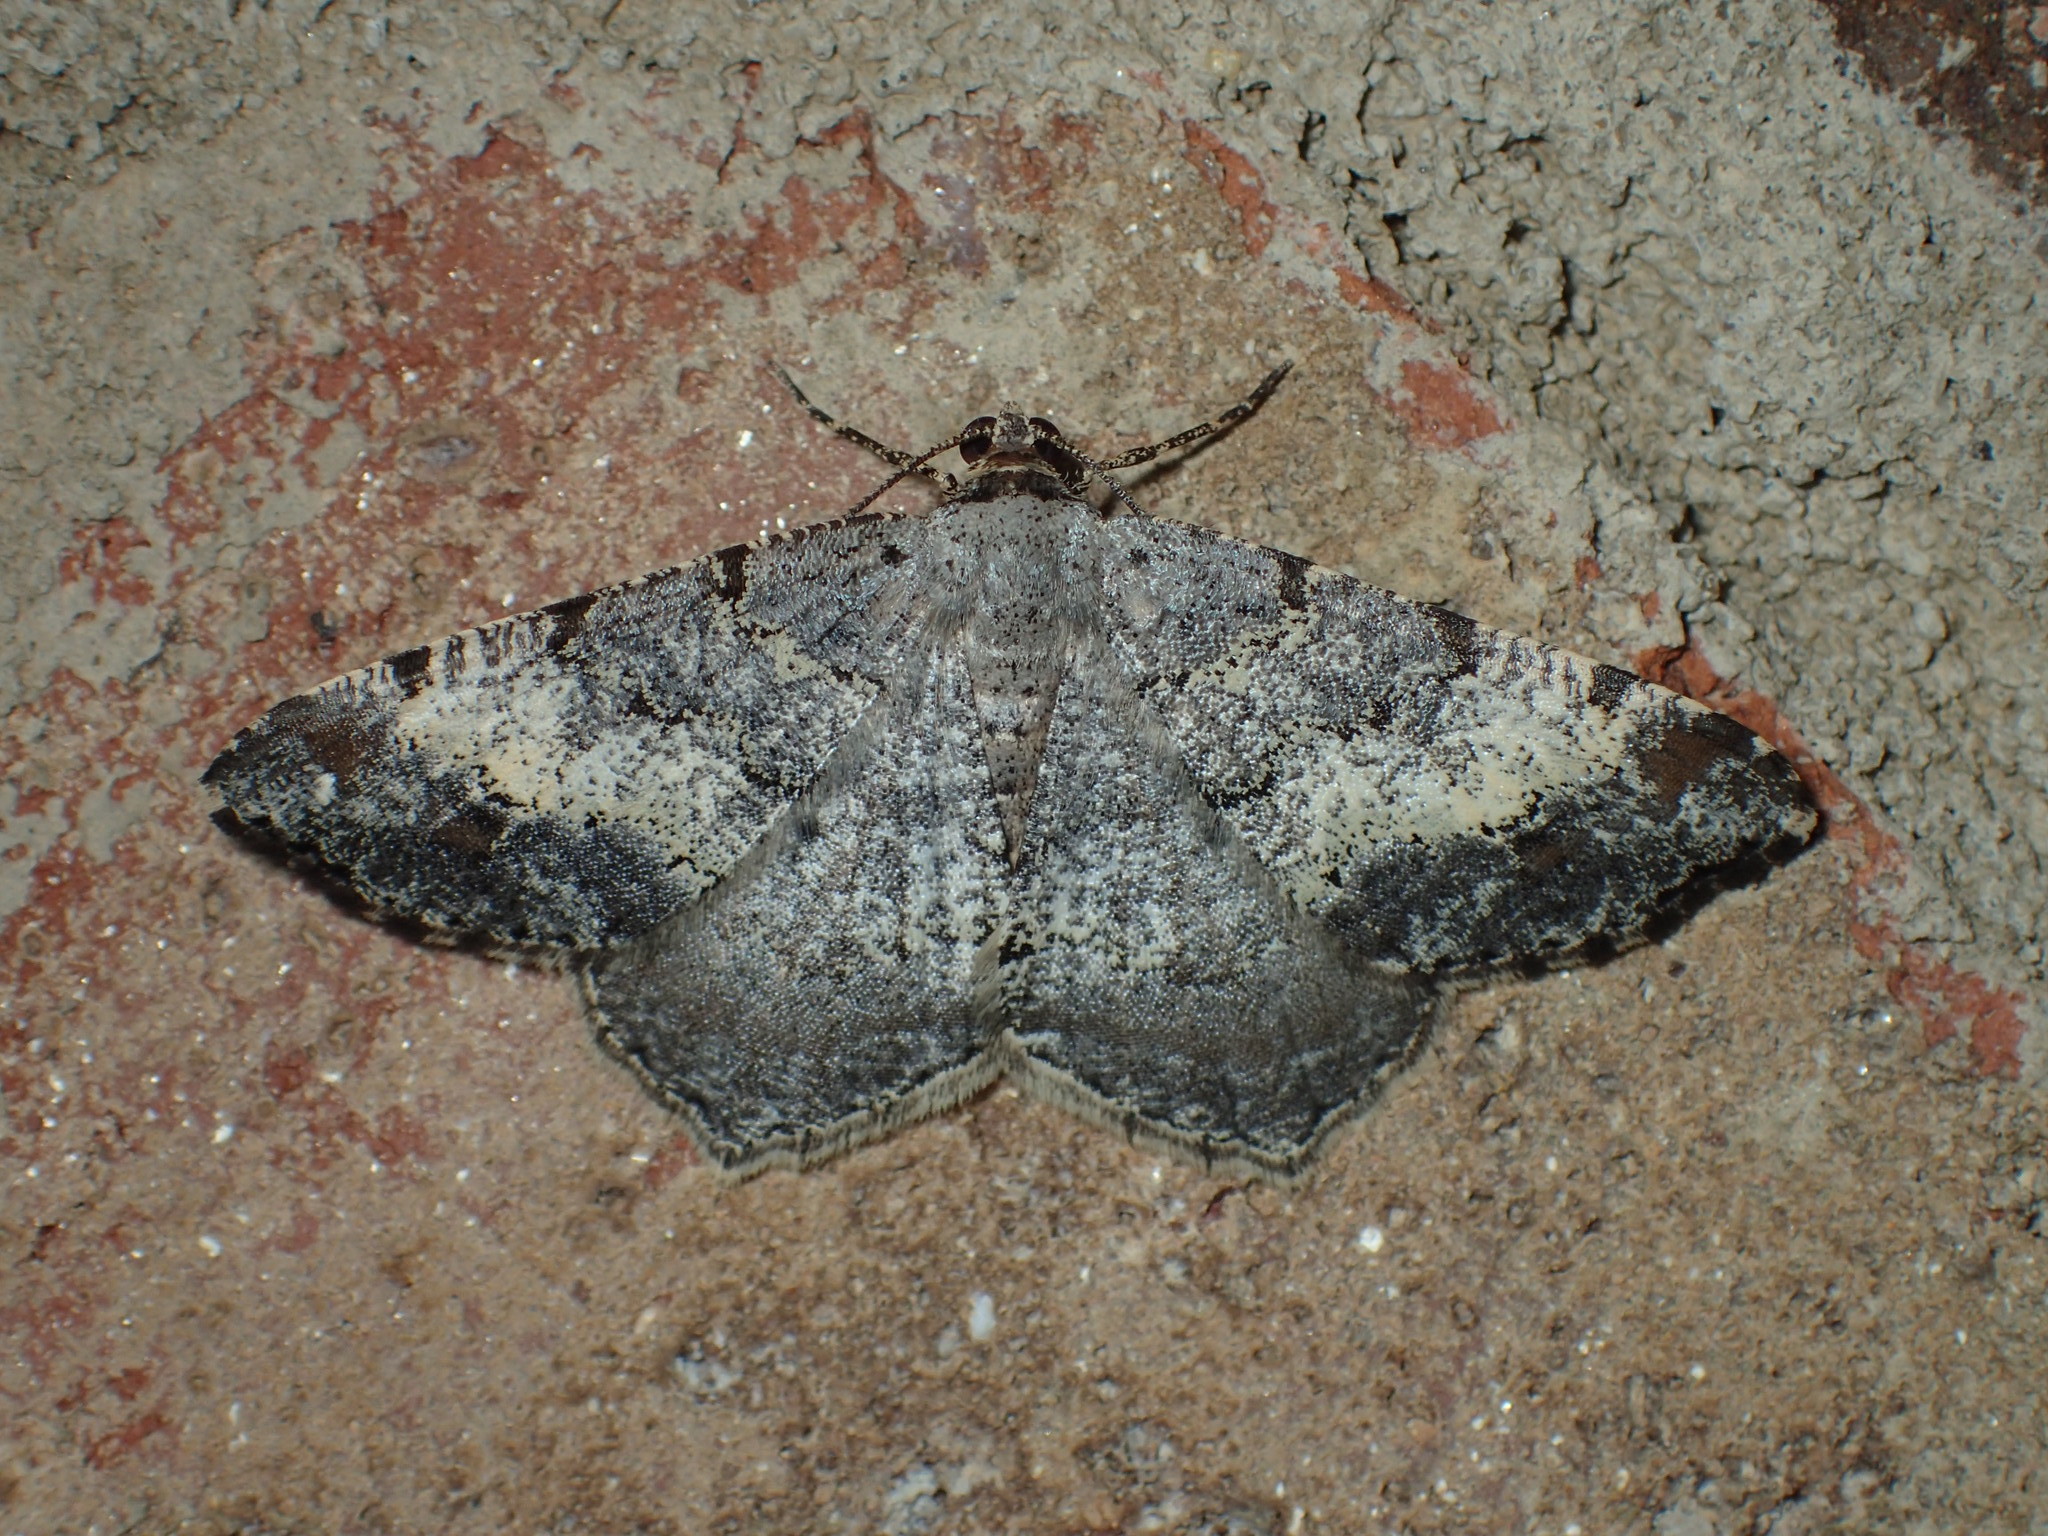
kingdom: Animalia
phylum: Arthropoda
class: Insecta
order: Lepidoptera
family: Geometridae
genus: Macaria
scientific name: Macaria granitata
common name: Granite moth
